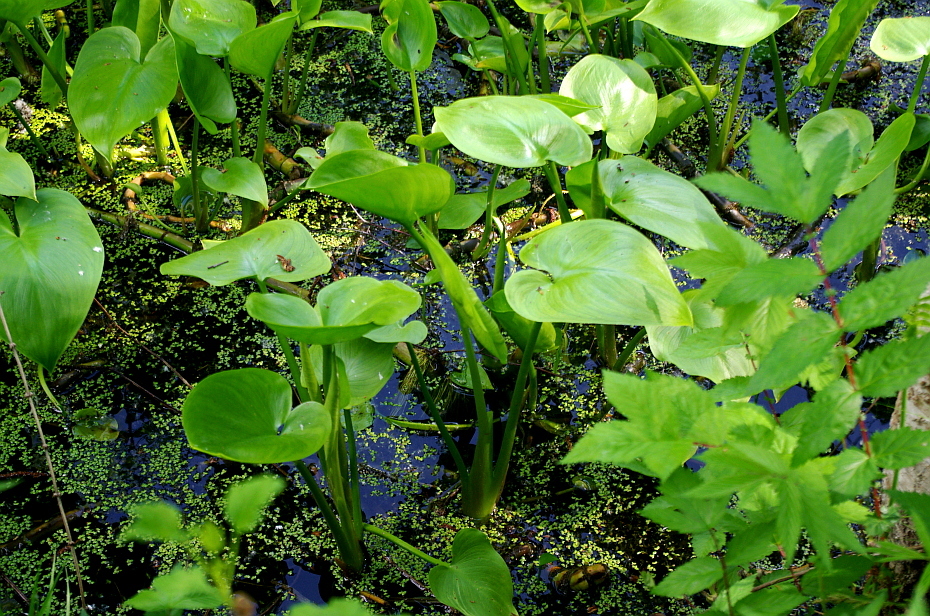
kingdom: Plantae
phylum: Tracheophyta
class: Liliopsida
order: Alismatales
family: Araceae
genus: Calla
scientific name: Calla palustris
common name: Bog arum
